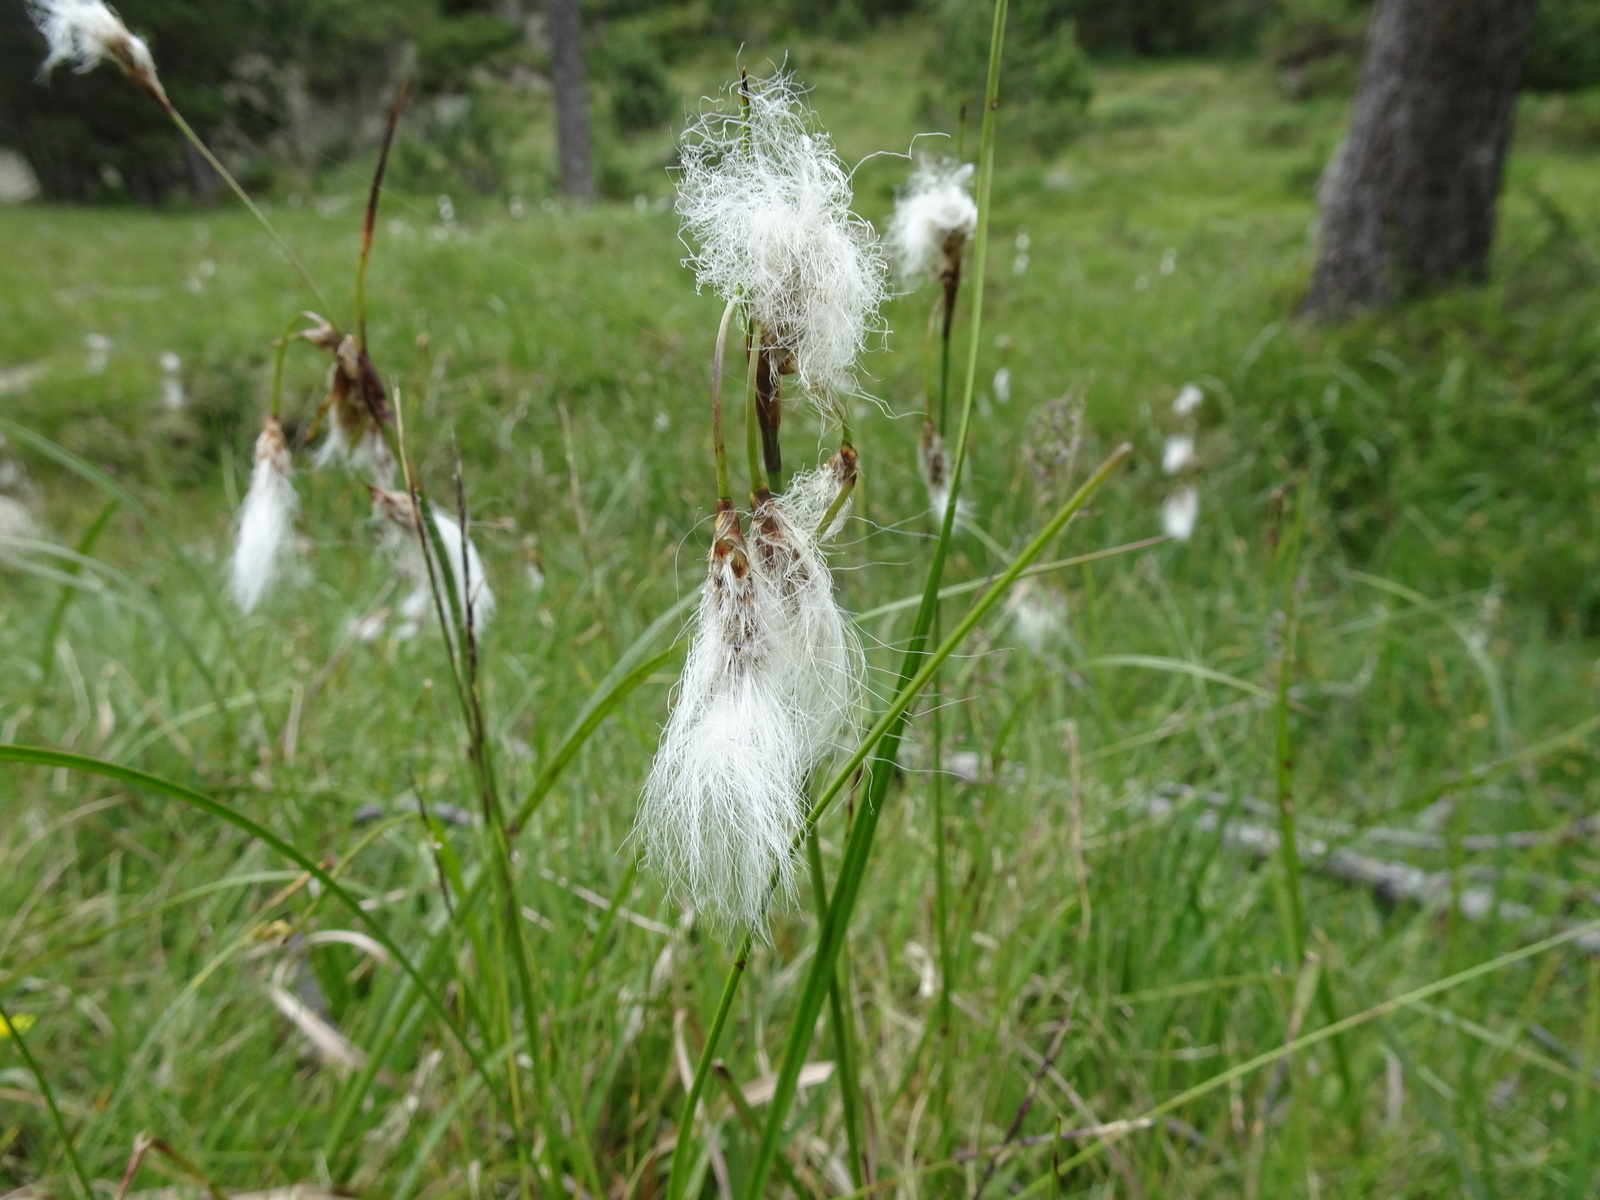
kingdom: Plantae
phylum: Tracheophyta
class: Liliopsida
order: Poales
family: Cyperaceae
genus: Eriophorum
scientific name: Eriophorum angustifolium
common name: Common cottongrass
